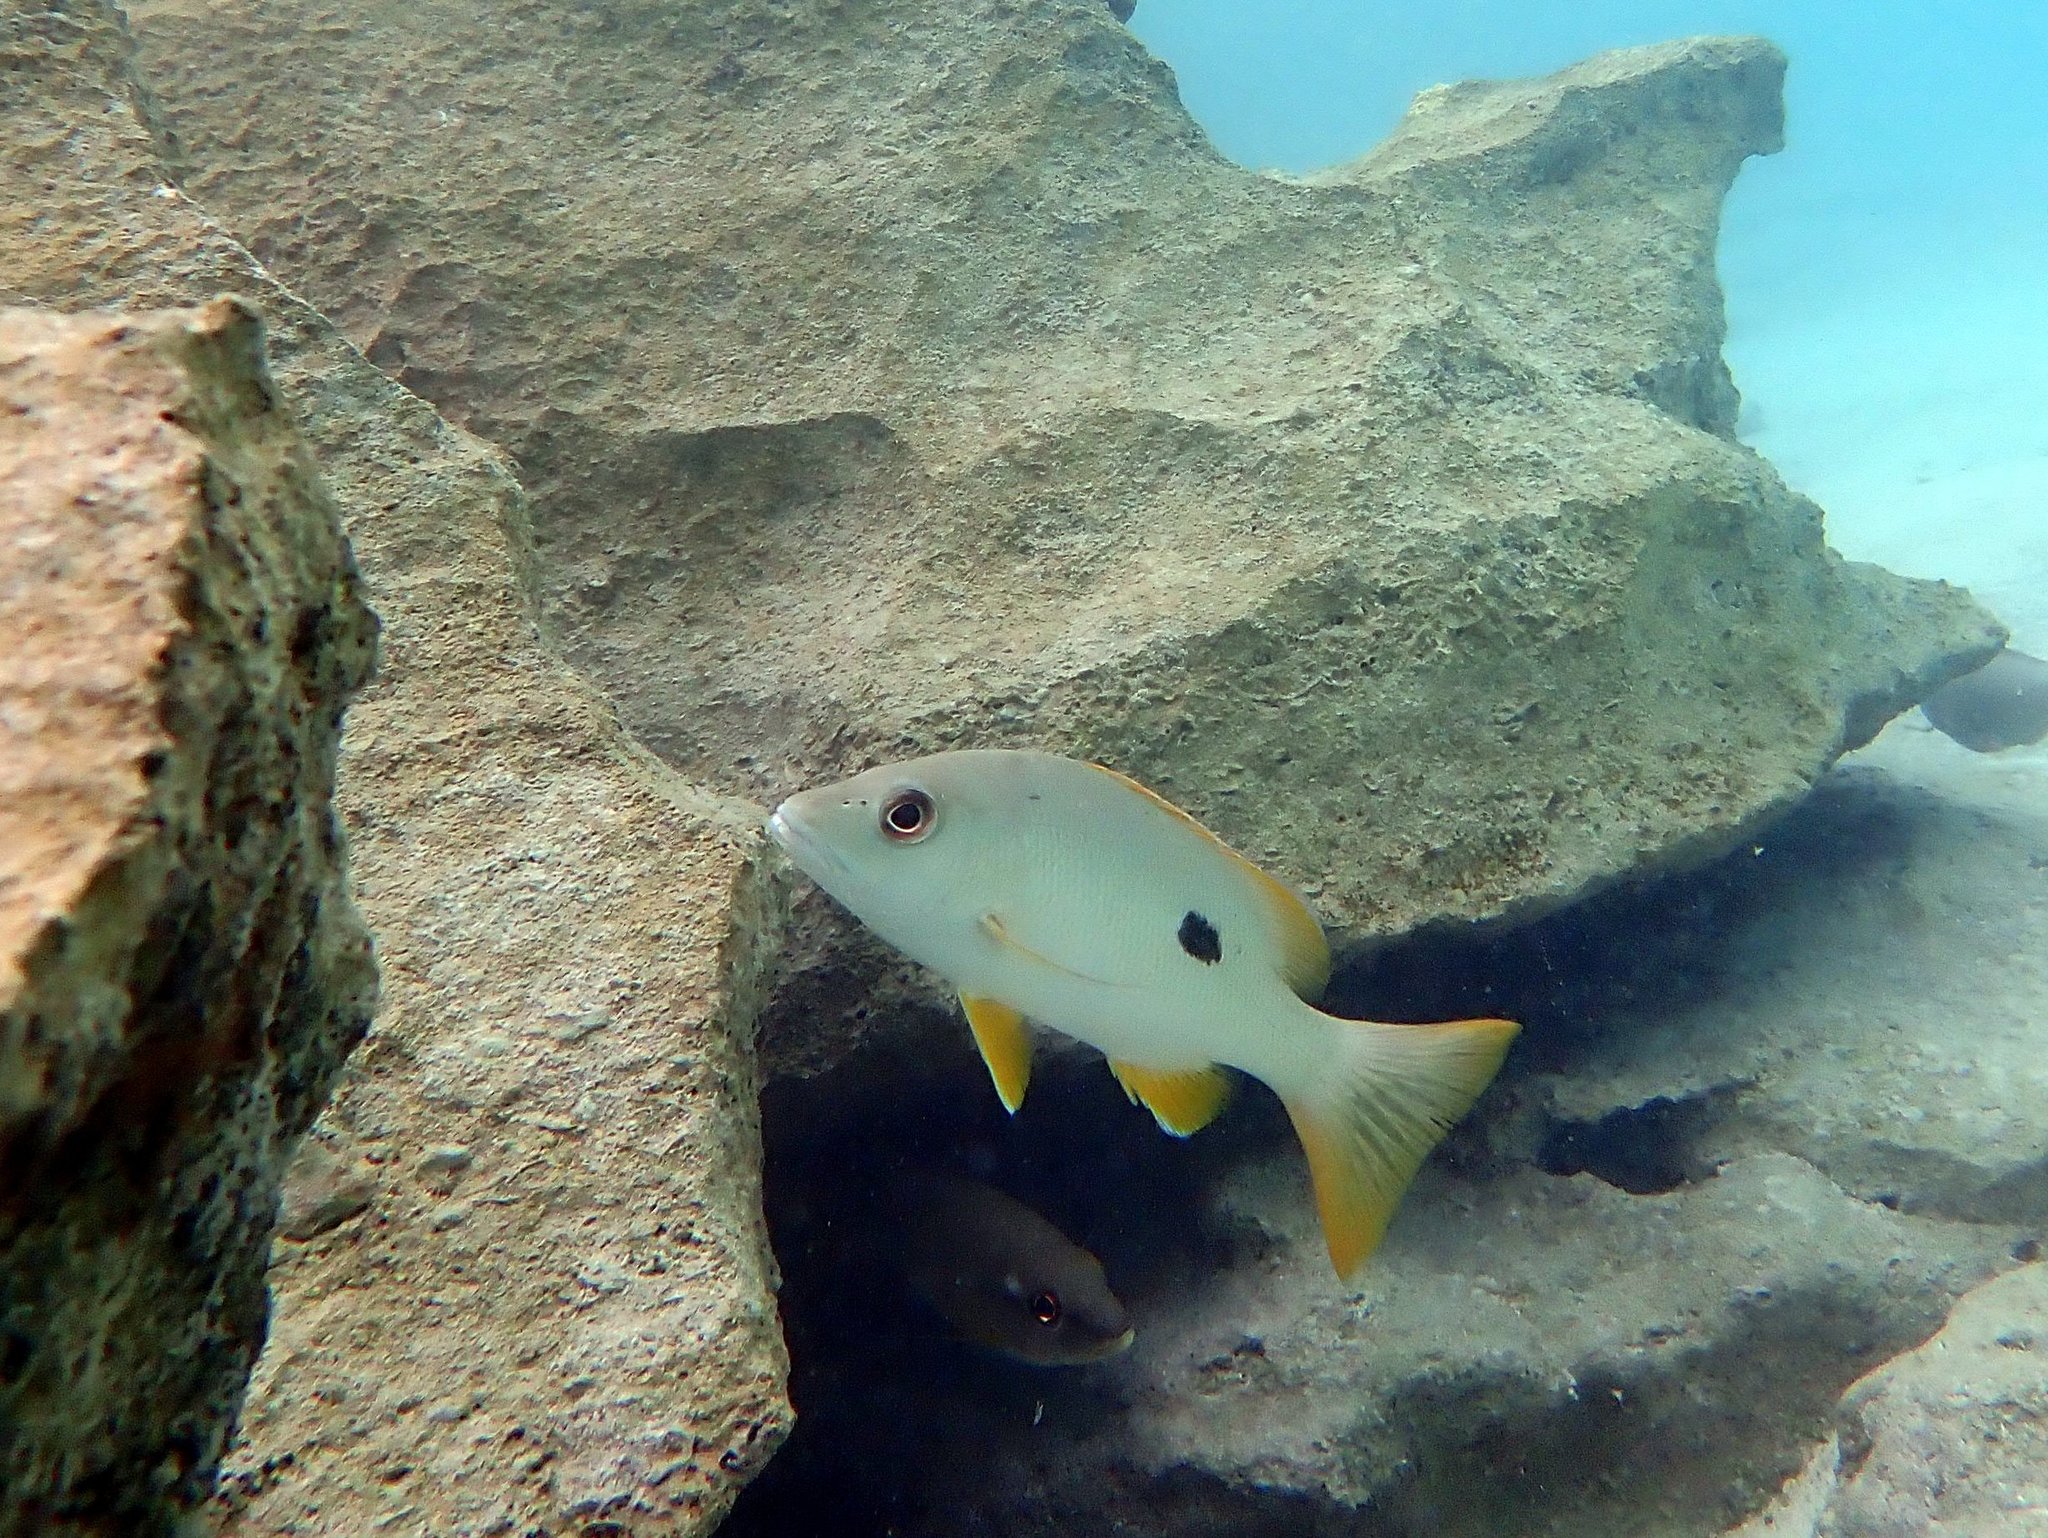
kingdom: Animalia
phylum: Chordata
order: Perciformes
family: Lutjanidae
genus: Lutjanus
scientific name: Lutjanus monostigma
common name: Onespot snapper
